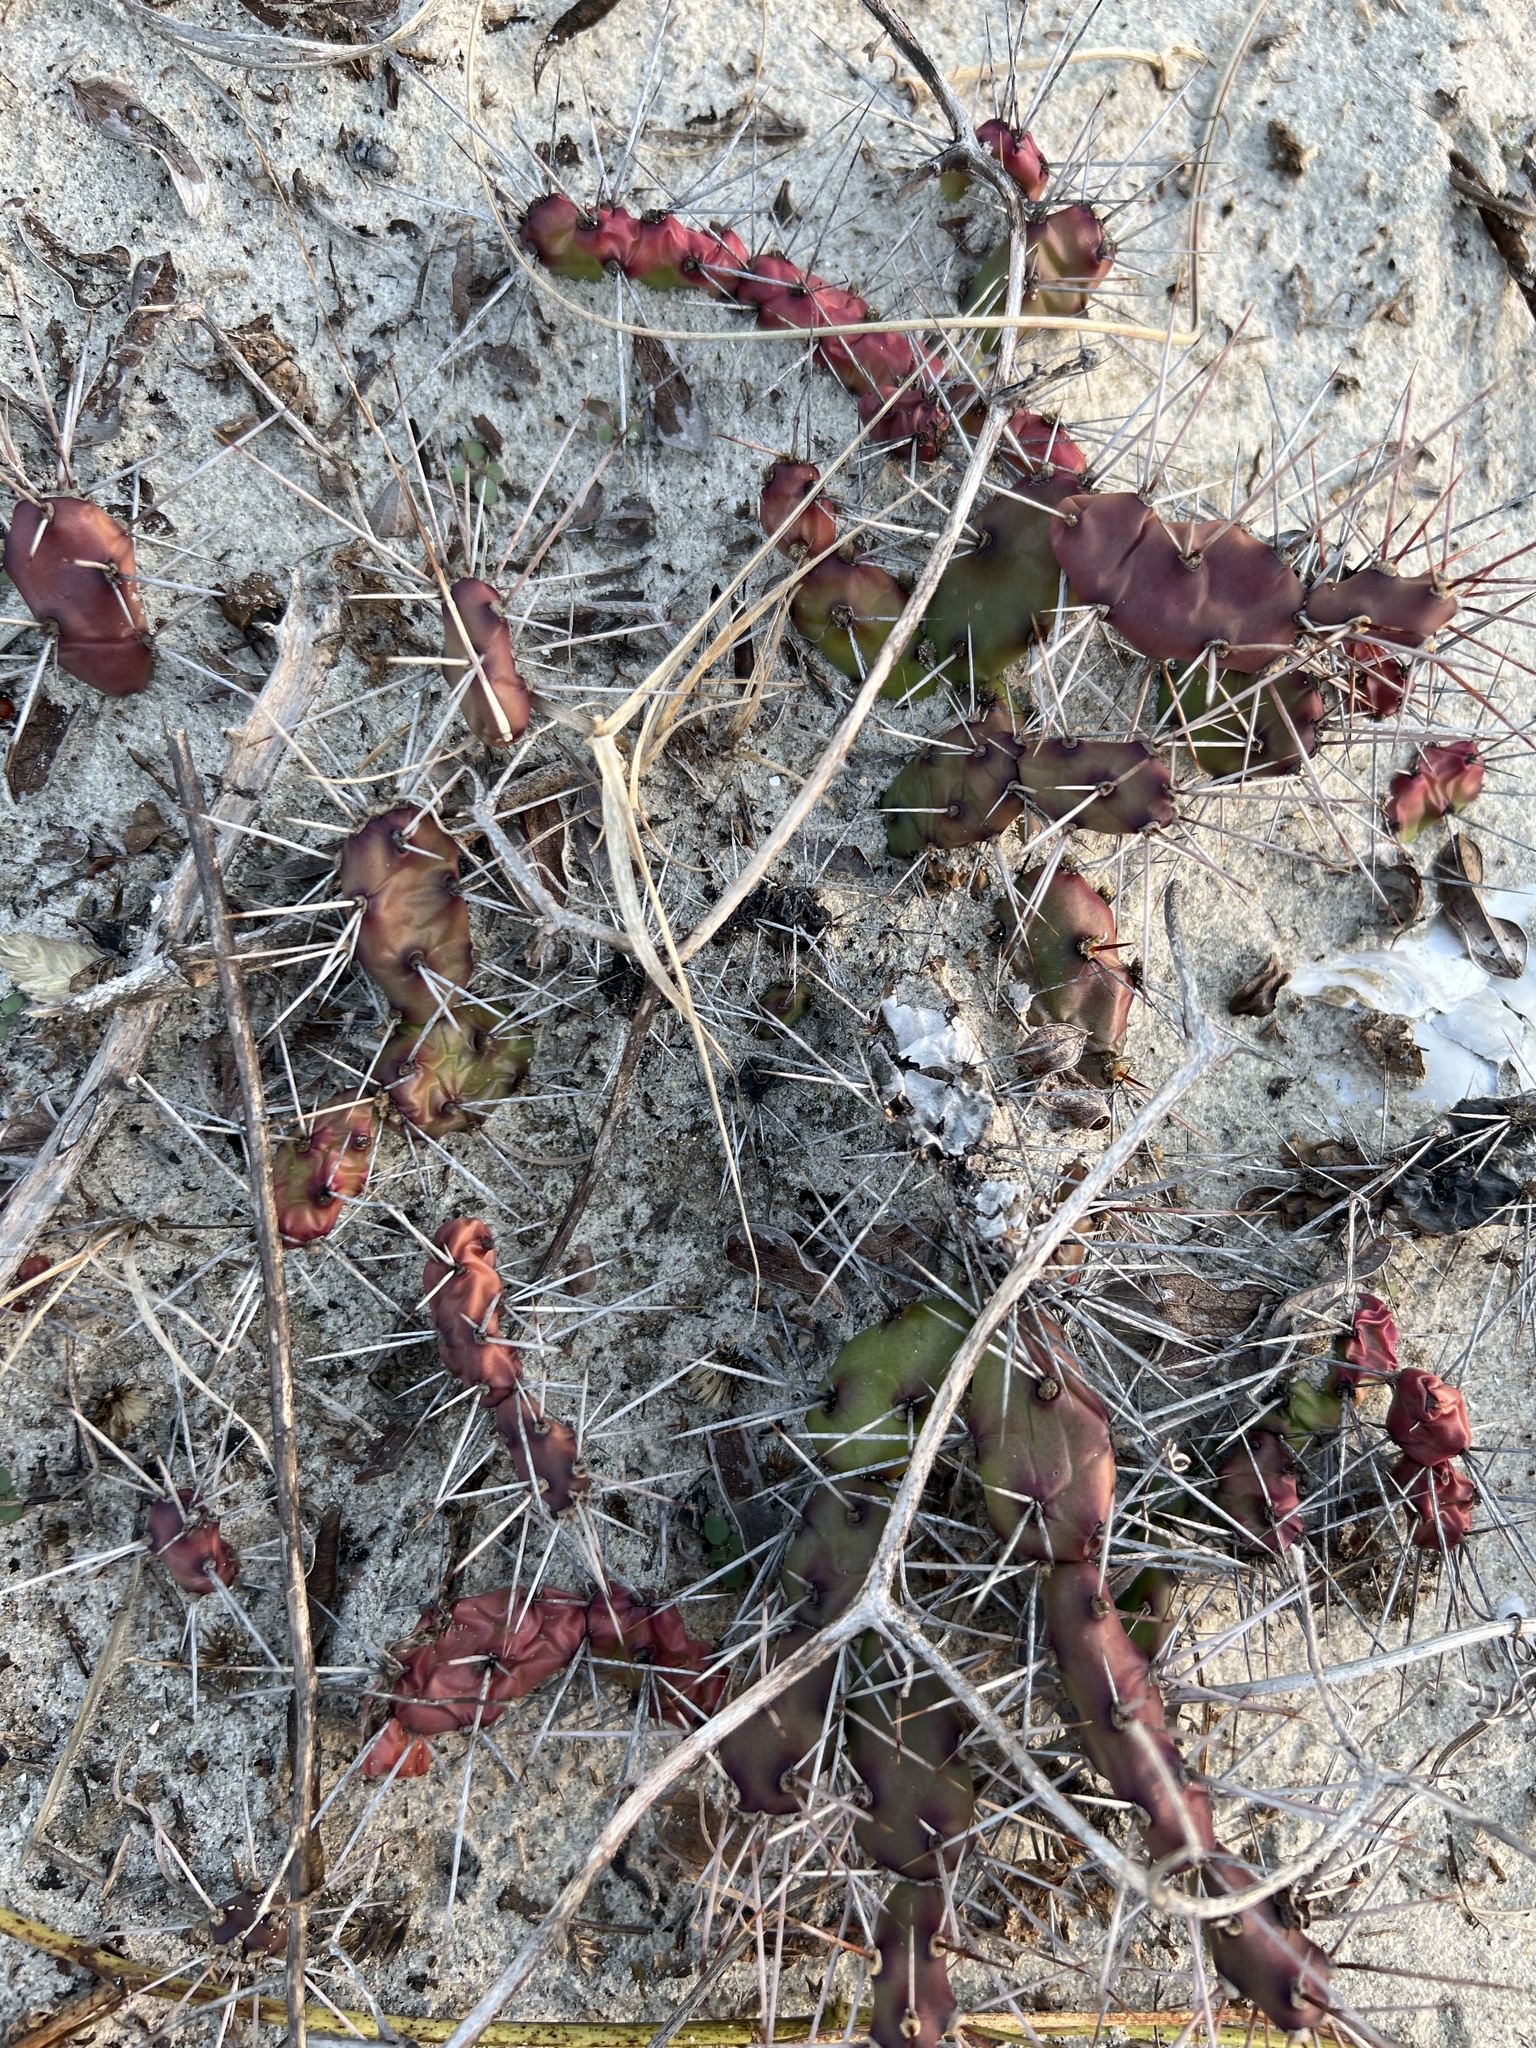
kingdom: Plantae
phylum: Tracheophyta
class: Magnoliopsida
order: Caryophyllales
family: Cactaceae
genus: Opuntia
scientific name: Opuntia drummondii
